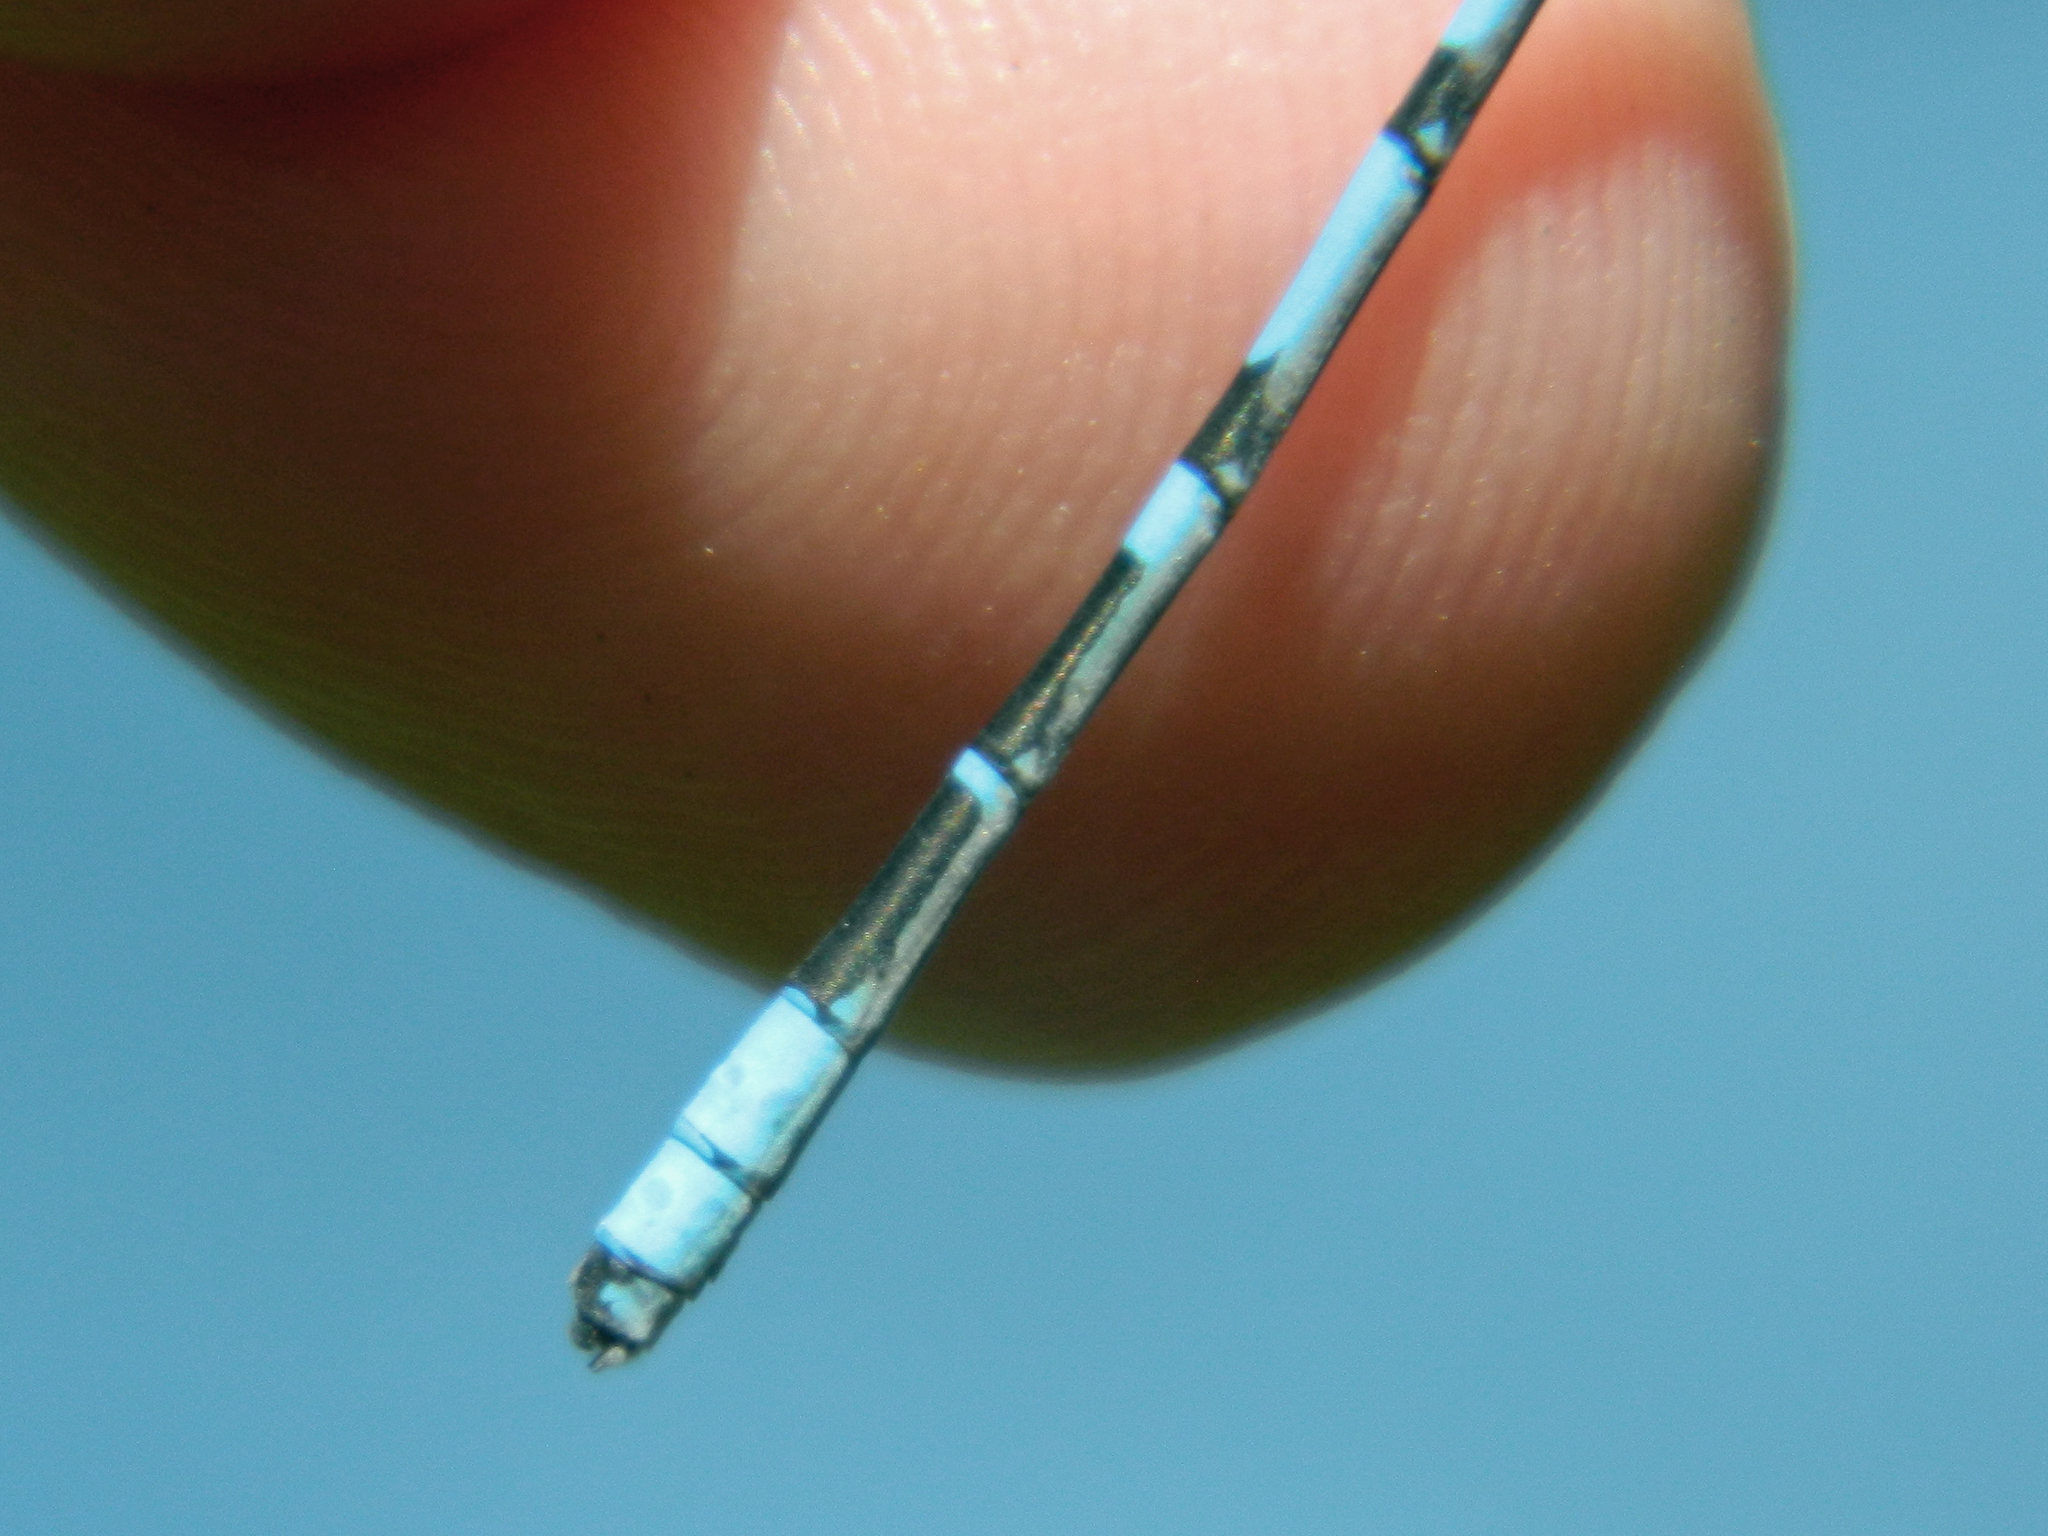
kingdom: Animalia
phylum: Arthropoda
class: Insecta
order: Odonata
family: Coenagrionidae
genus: Enallagma
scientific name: Enallagma boreale
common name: Boreal bluet
